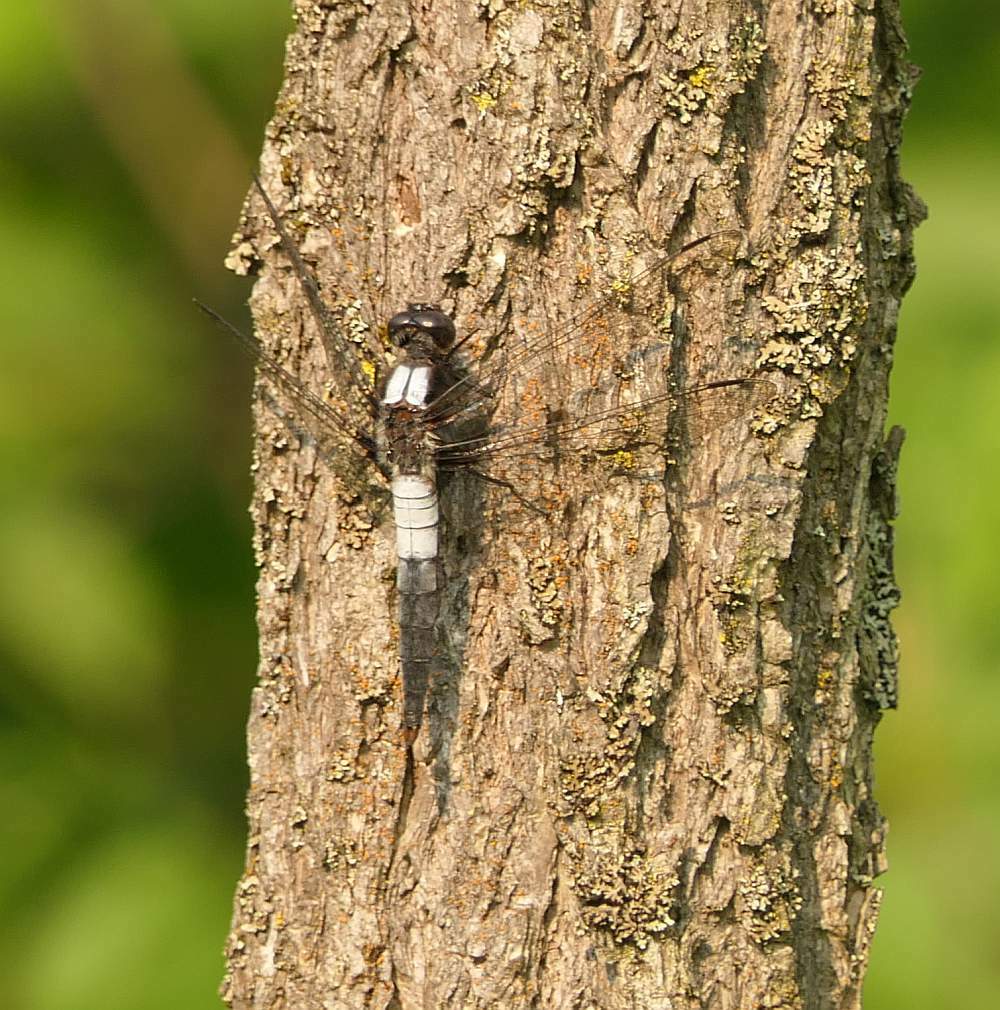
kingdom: Animalia
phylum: Arthropoda
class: Insecta
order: Odonata
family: Libellulidae
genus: Ladona
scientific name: Ladona julia
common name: Chalk-fronted corporal
